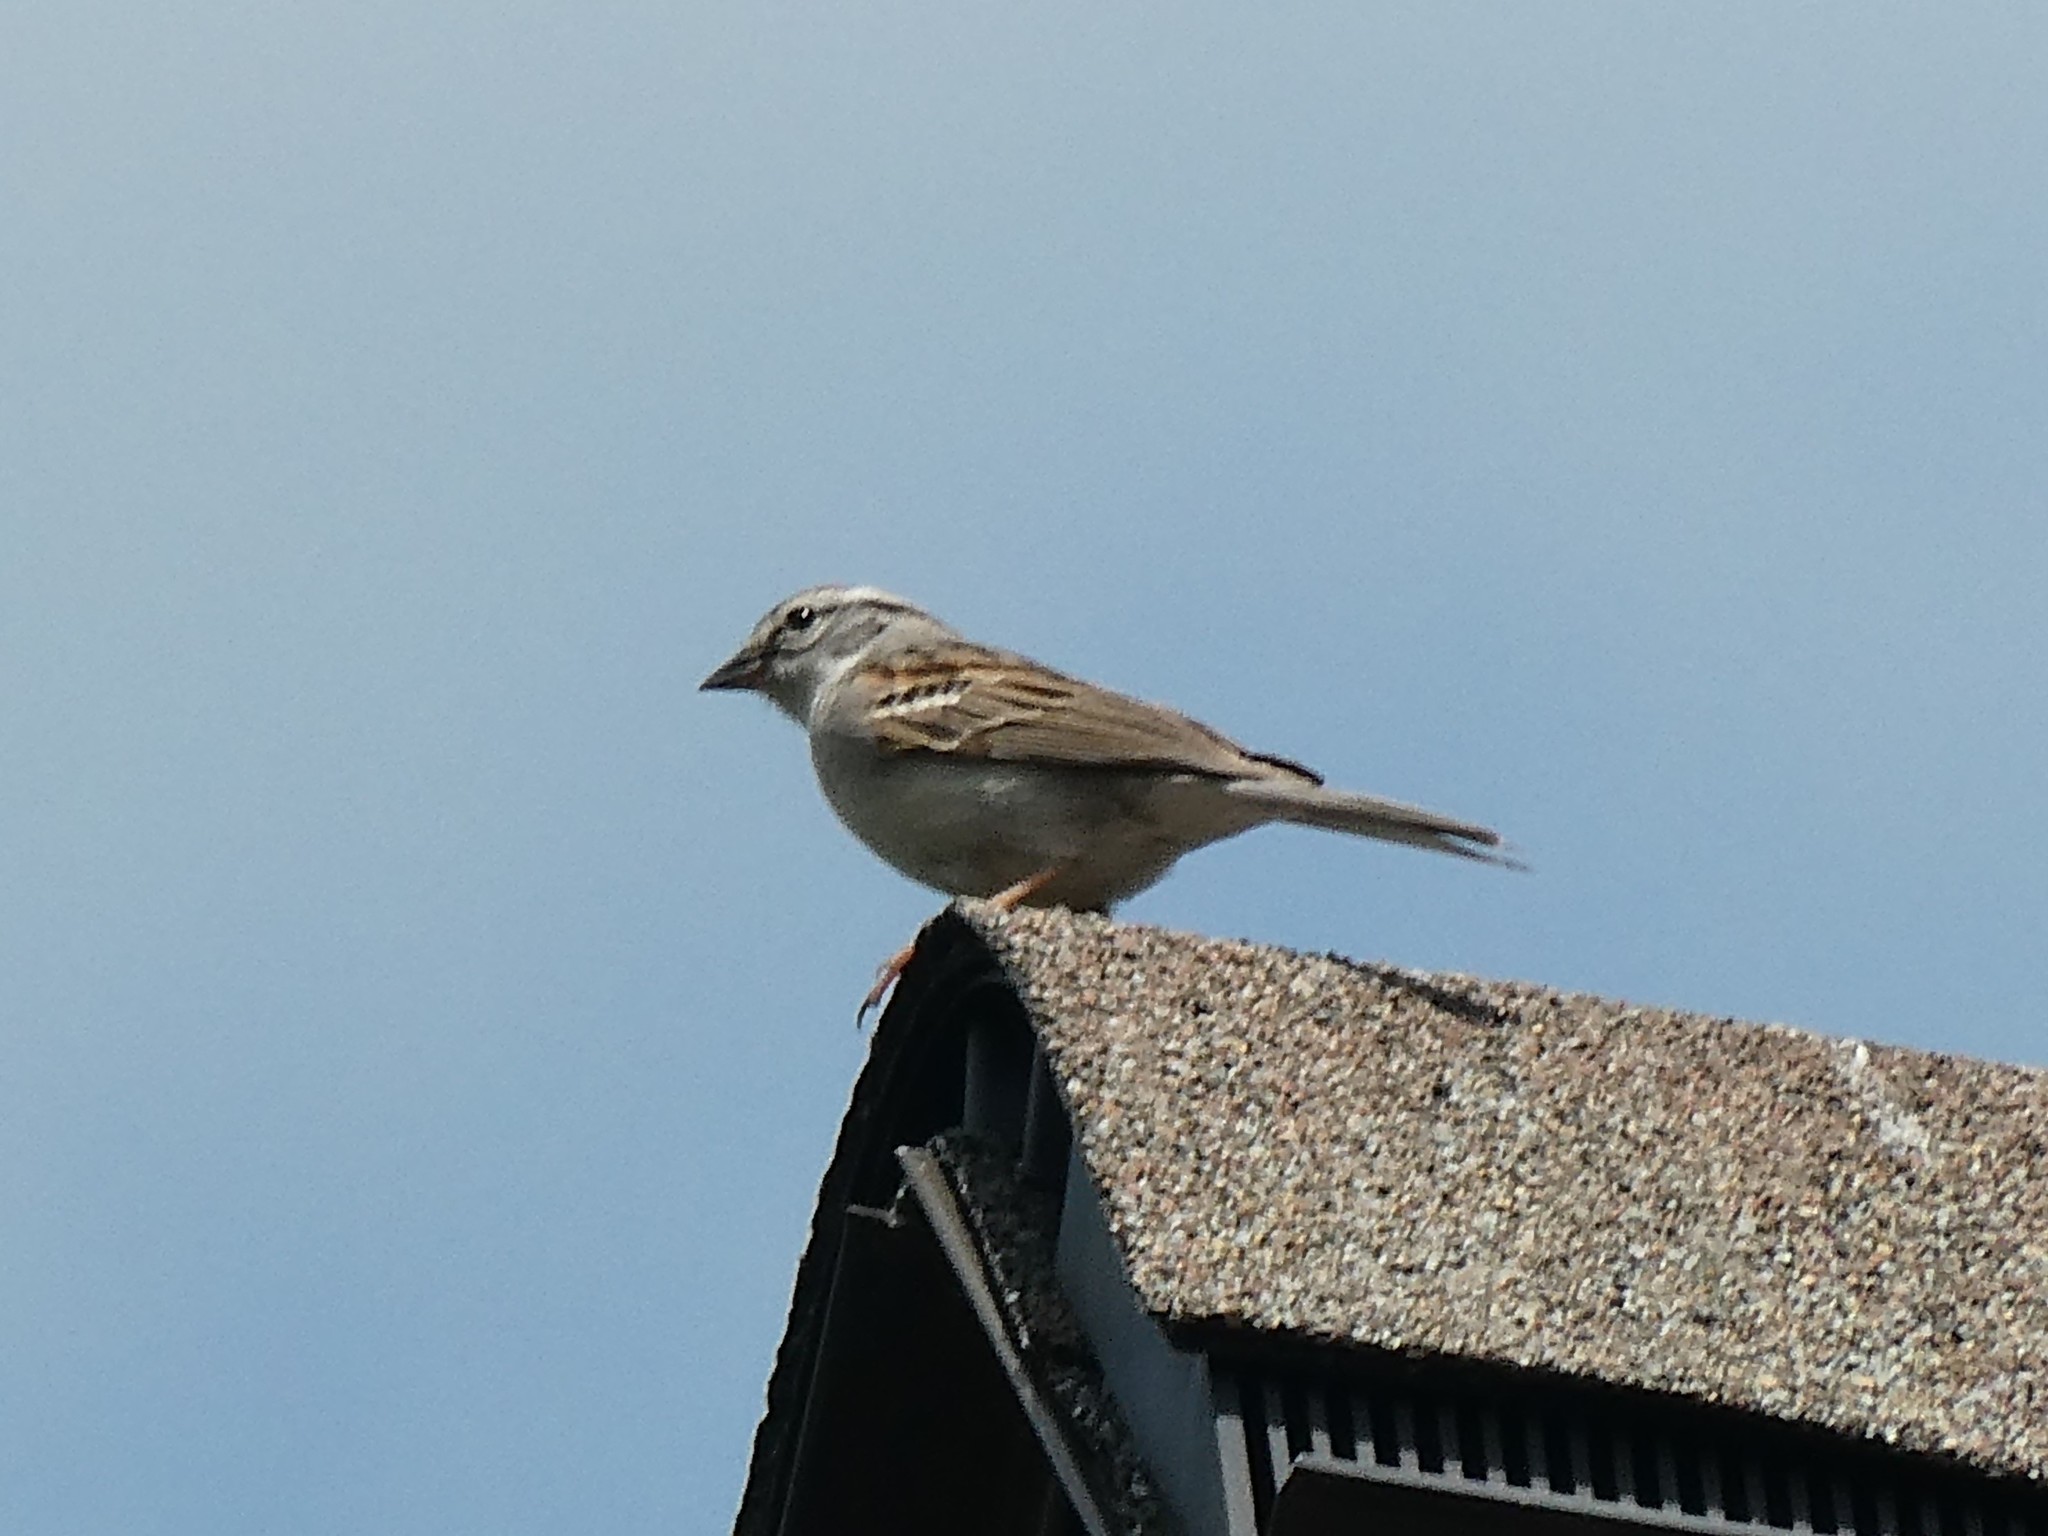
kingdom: Animalia
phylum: Chordata
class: Aves
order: Passeriformes
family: Passerellidae
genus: Spizella
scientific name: Spizella passerina
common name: Chipping sparrow
